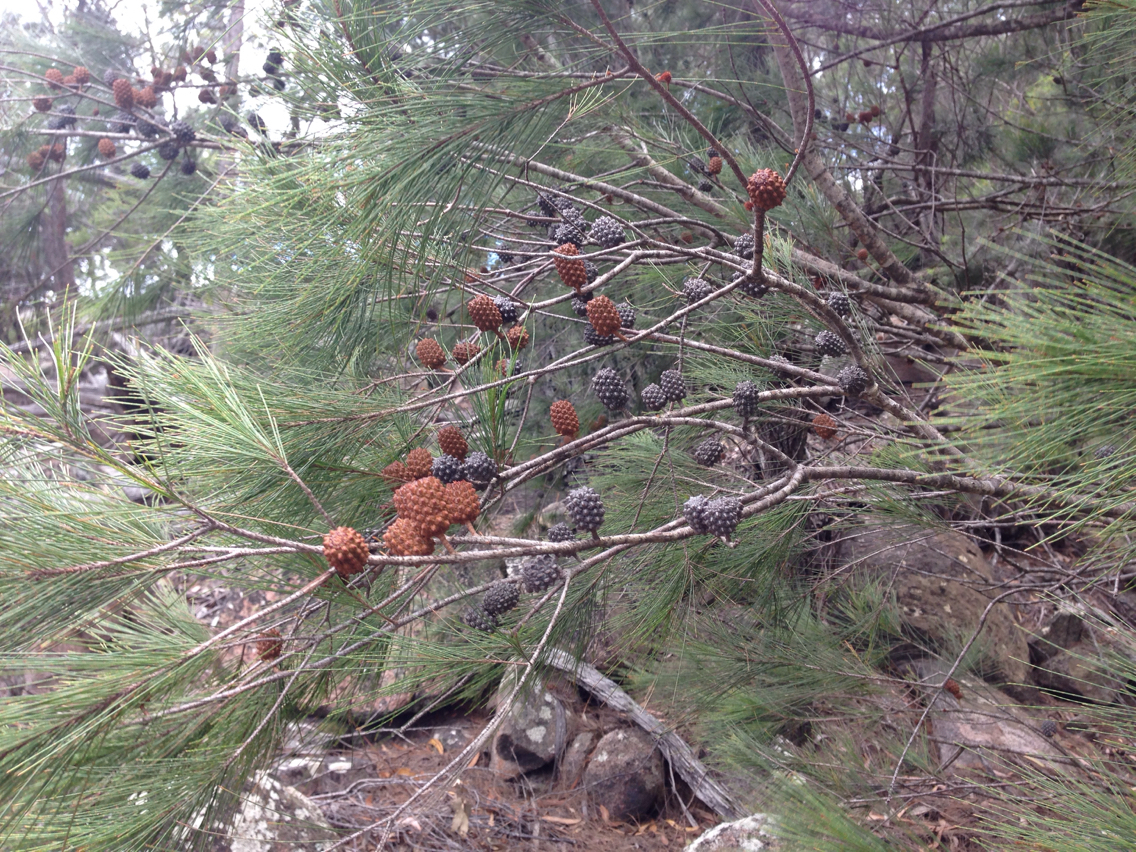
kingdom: Plantae
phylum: Tracheophyta
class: Magnoliopsida
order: Fagales
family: Casuarinaceae
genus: Allocasuarina
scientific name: Allocasuarina littoralis
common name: Black she-oak
